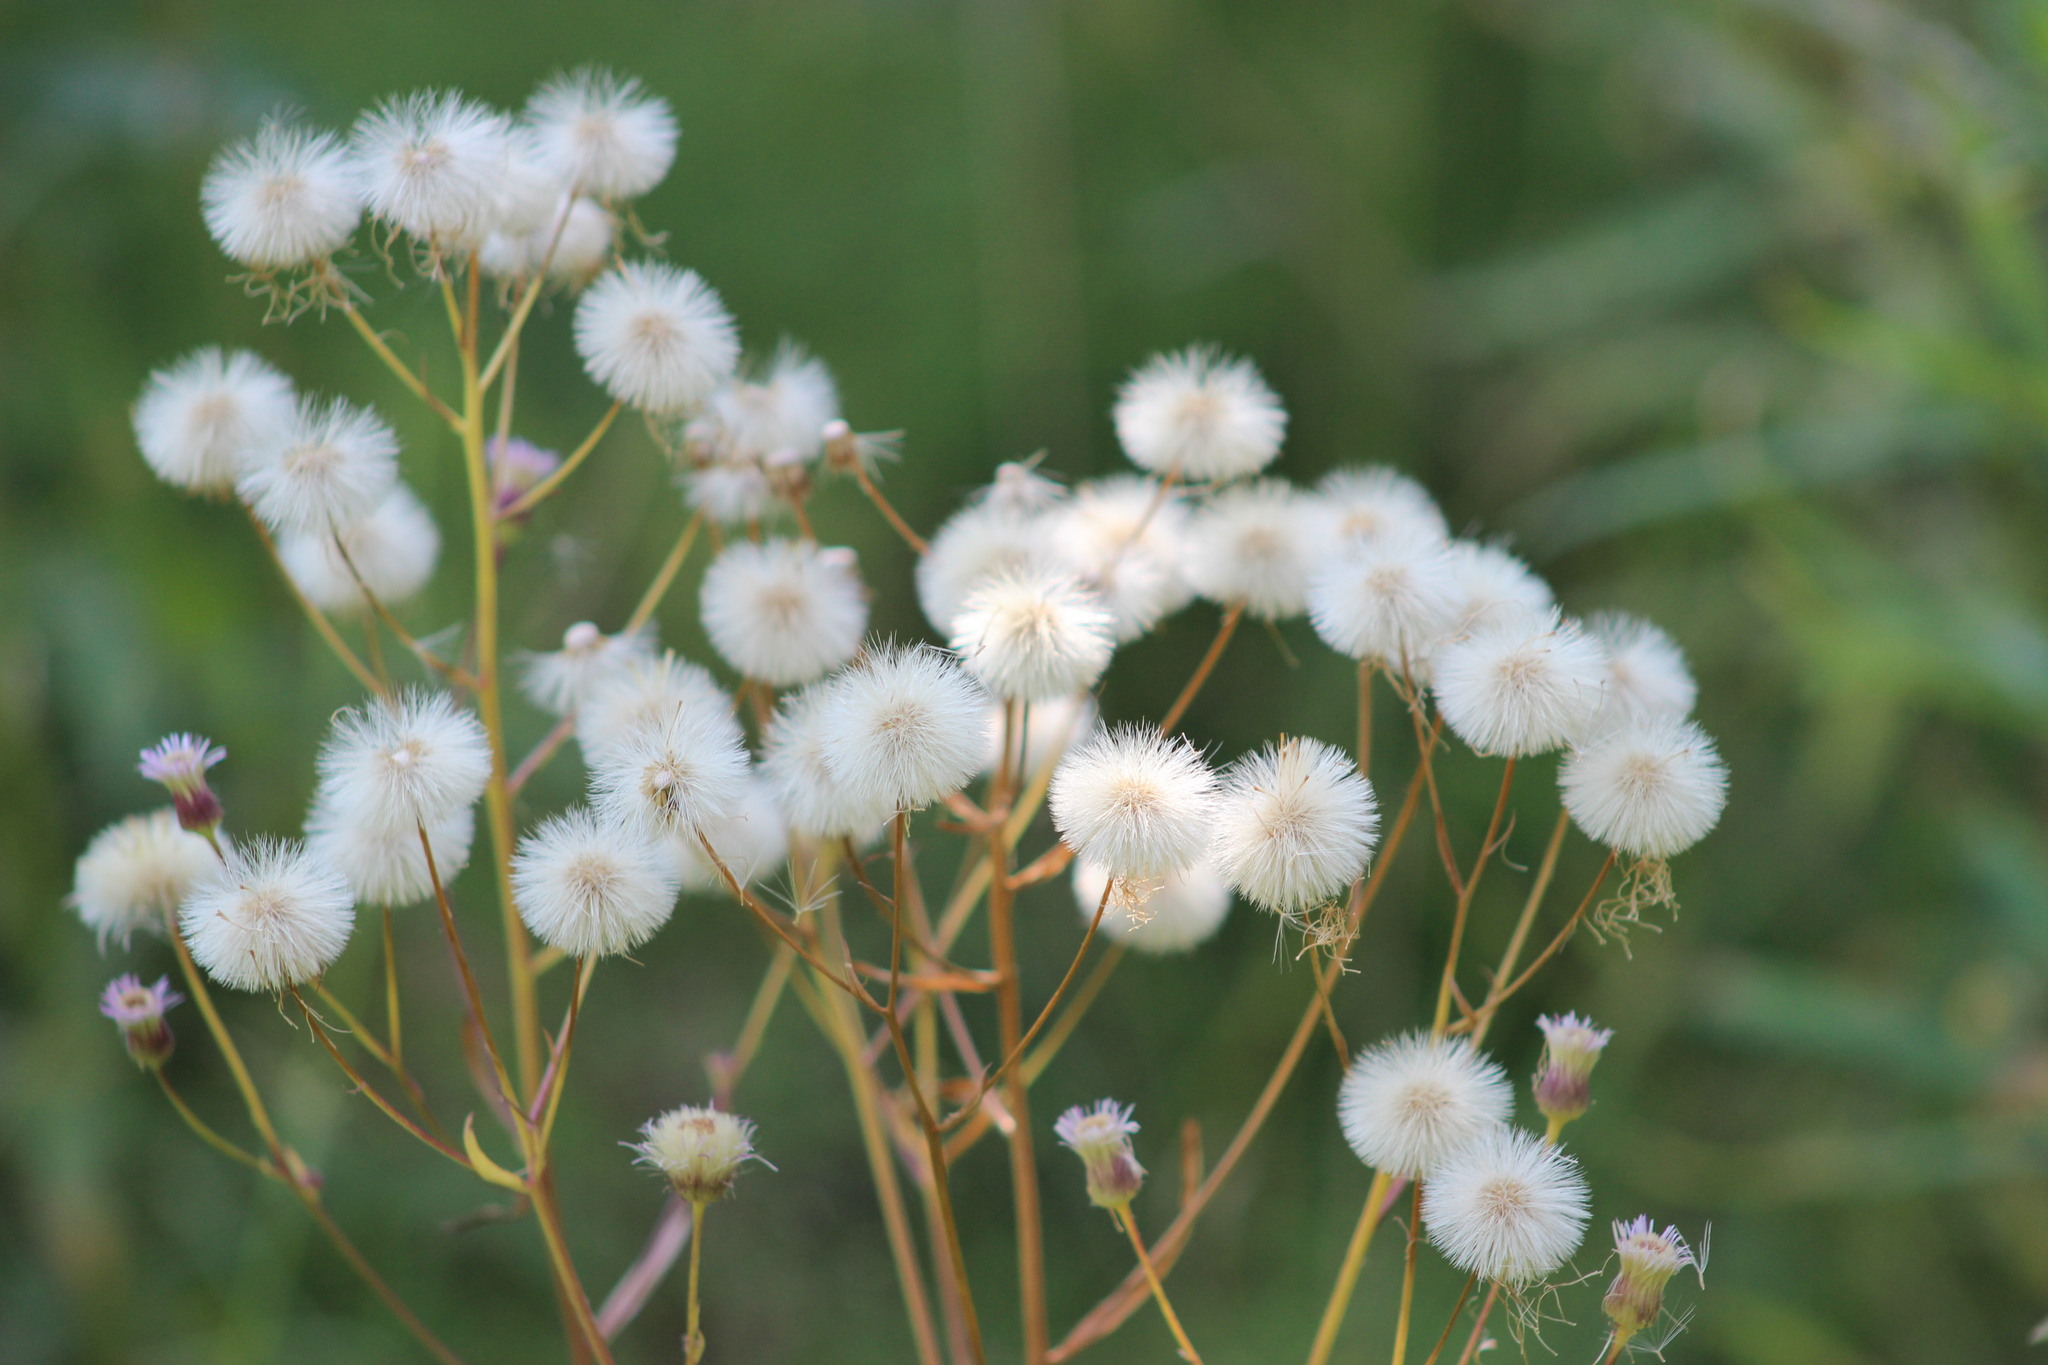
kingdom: Plantae
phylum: Tracheophyta
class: Magnoliopsida
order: Asterales
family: Asteraceae
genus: Erigeron
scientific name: Erigeron acris
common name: Blue fleabane
